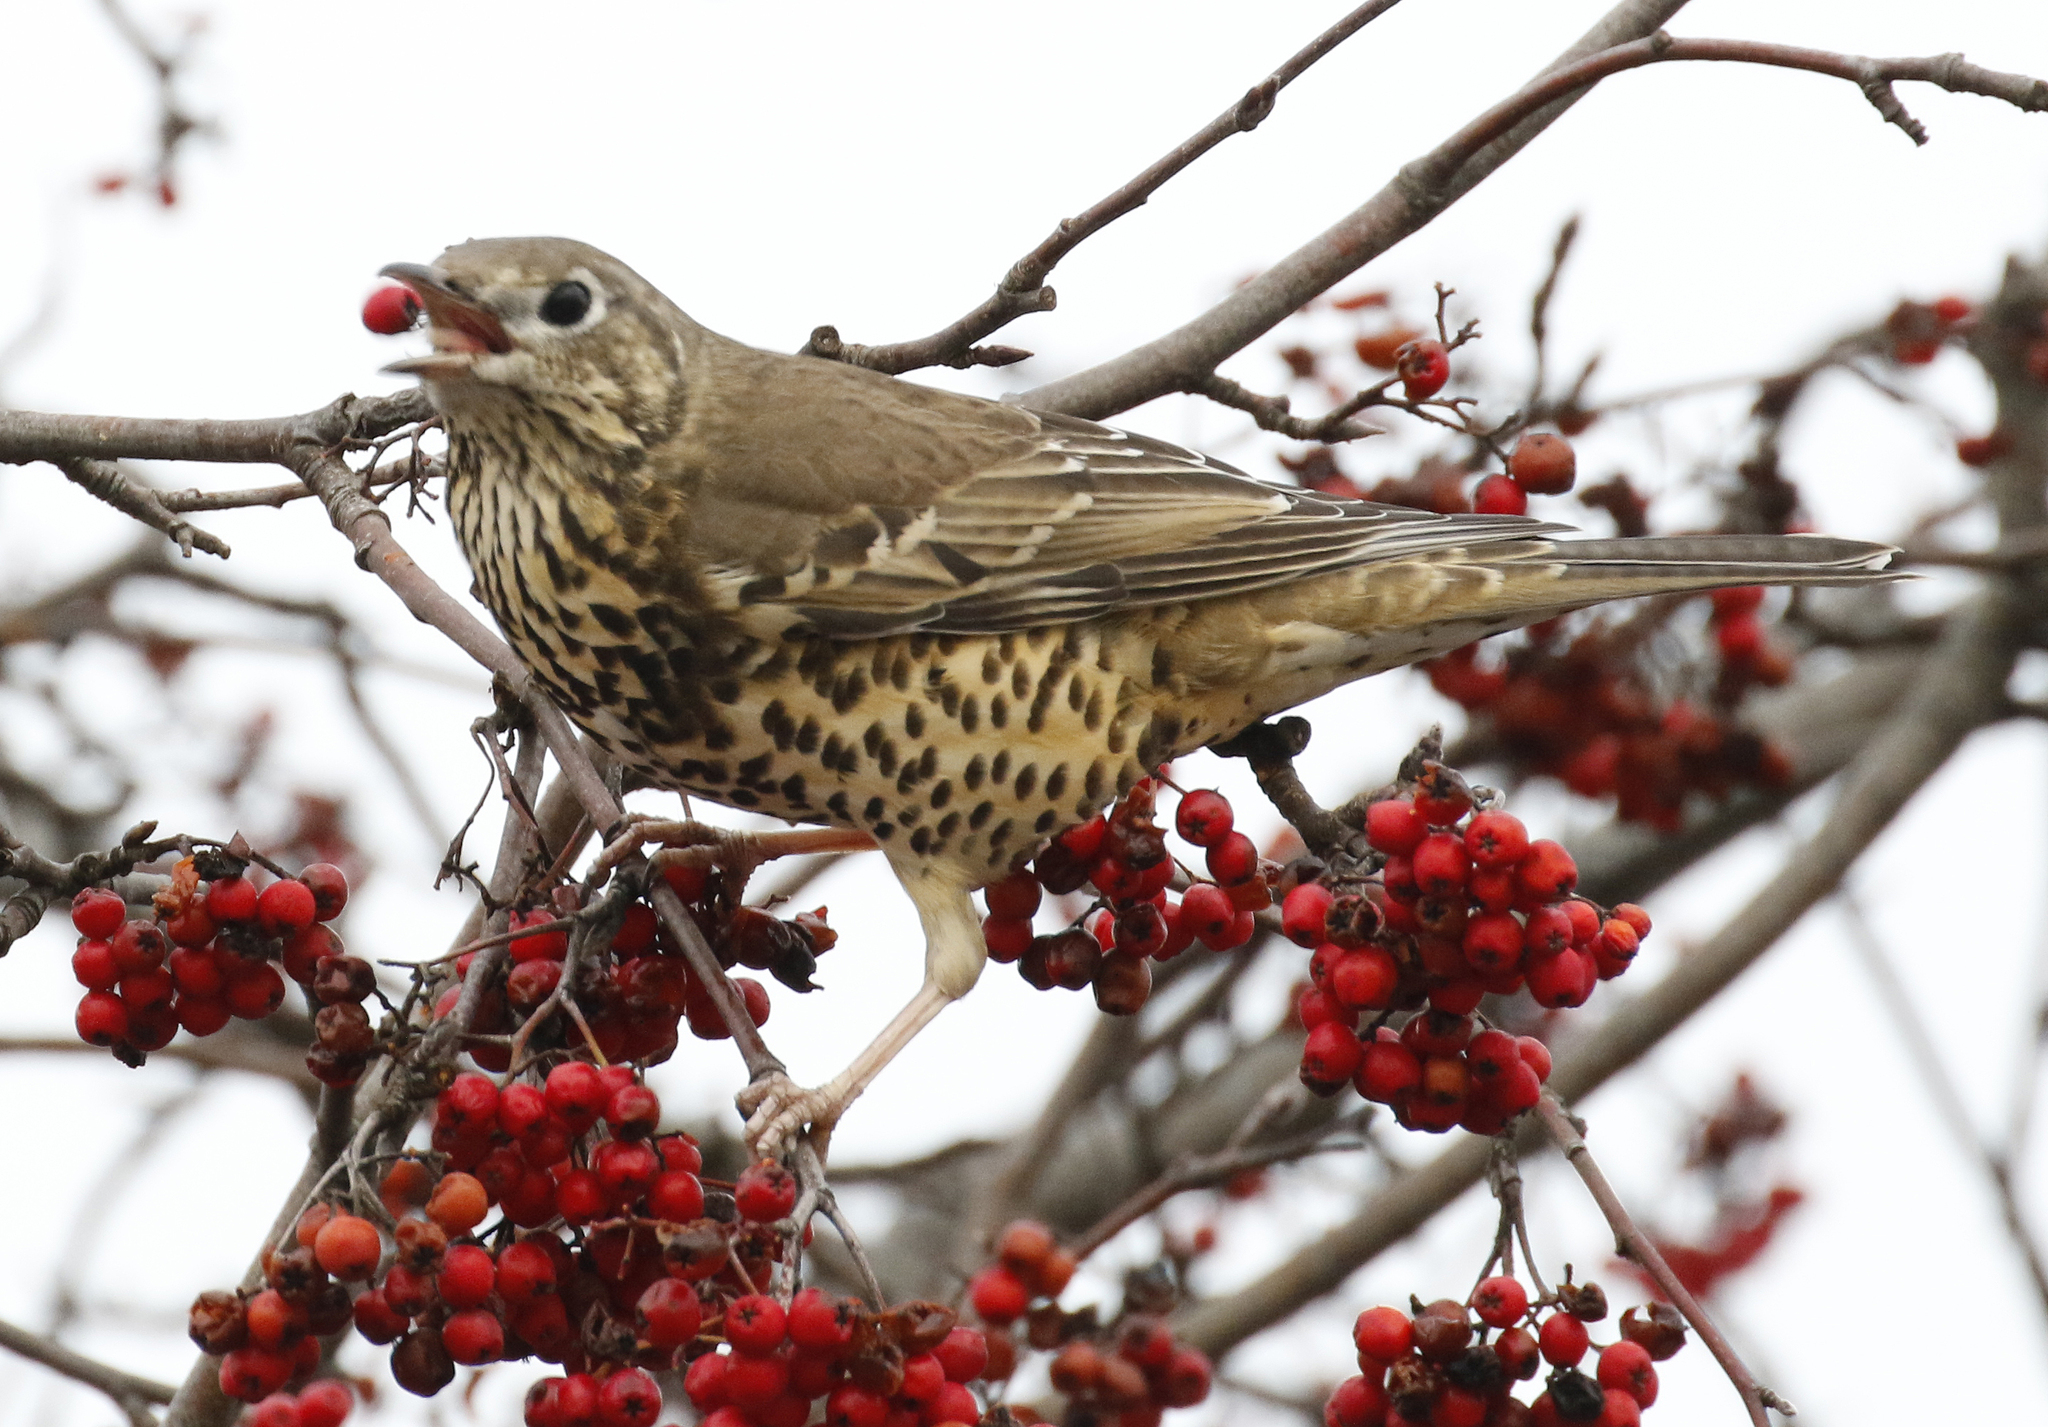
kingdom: Animalia
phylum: Chordata
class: Aves
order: Passeriformes
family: Turdidae
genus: Turdus
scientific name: Turdus viscivorus
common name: Mistle thrush
